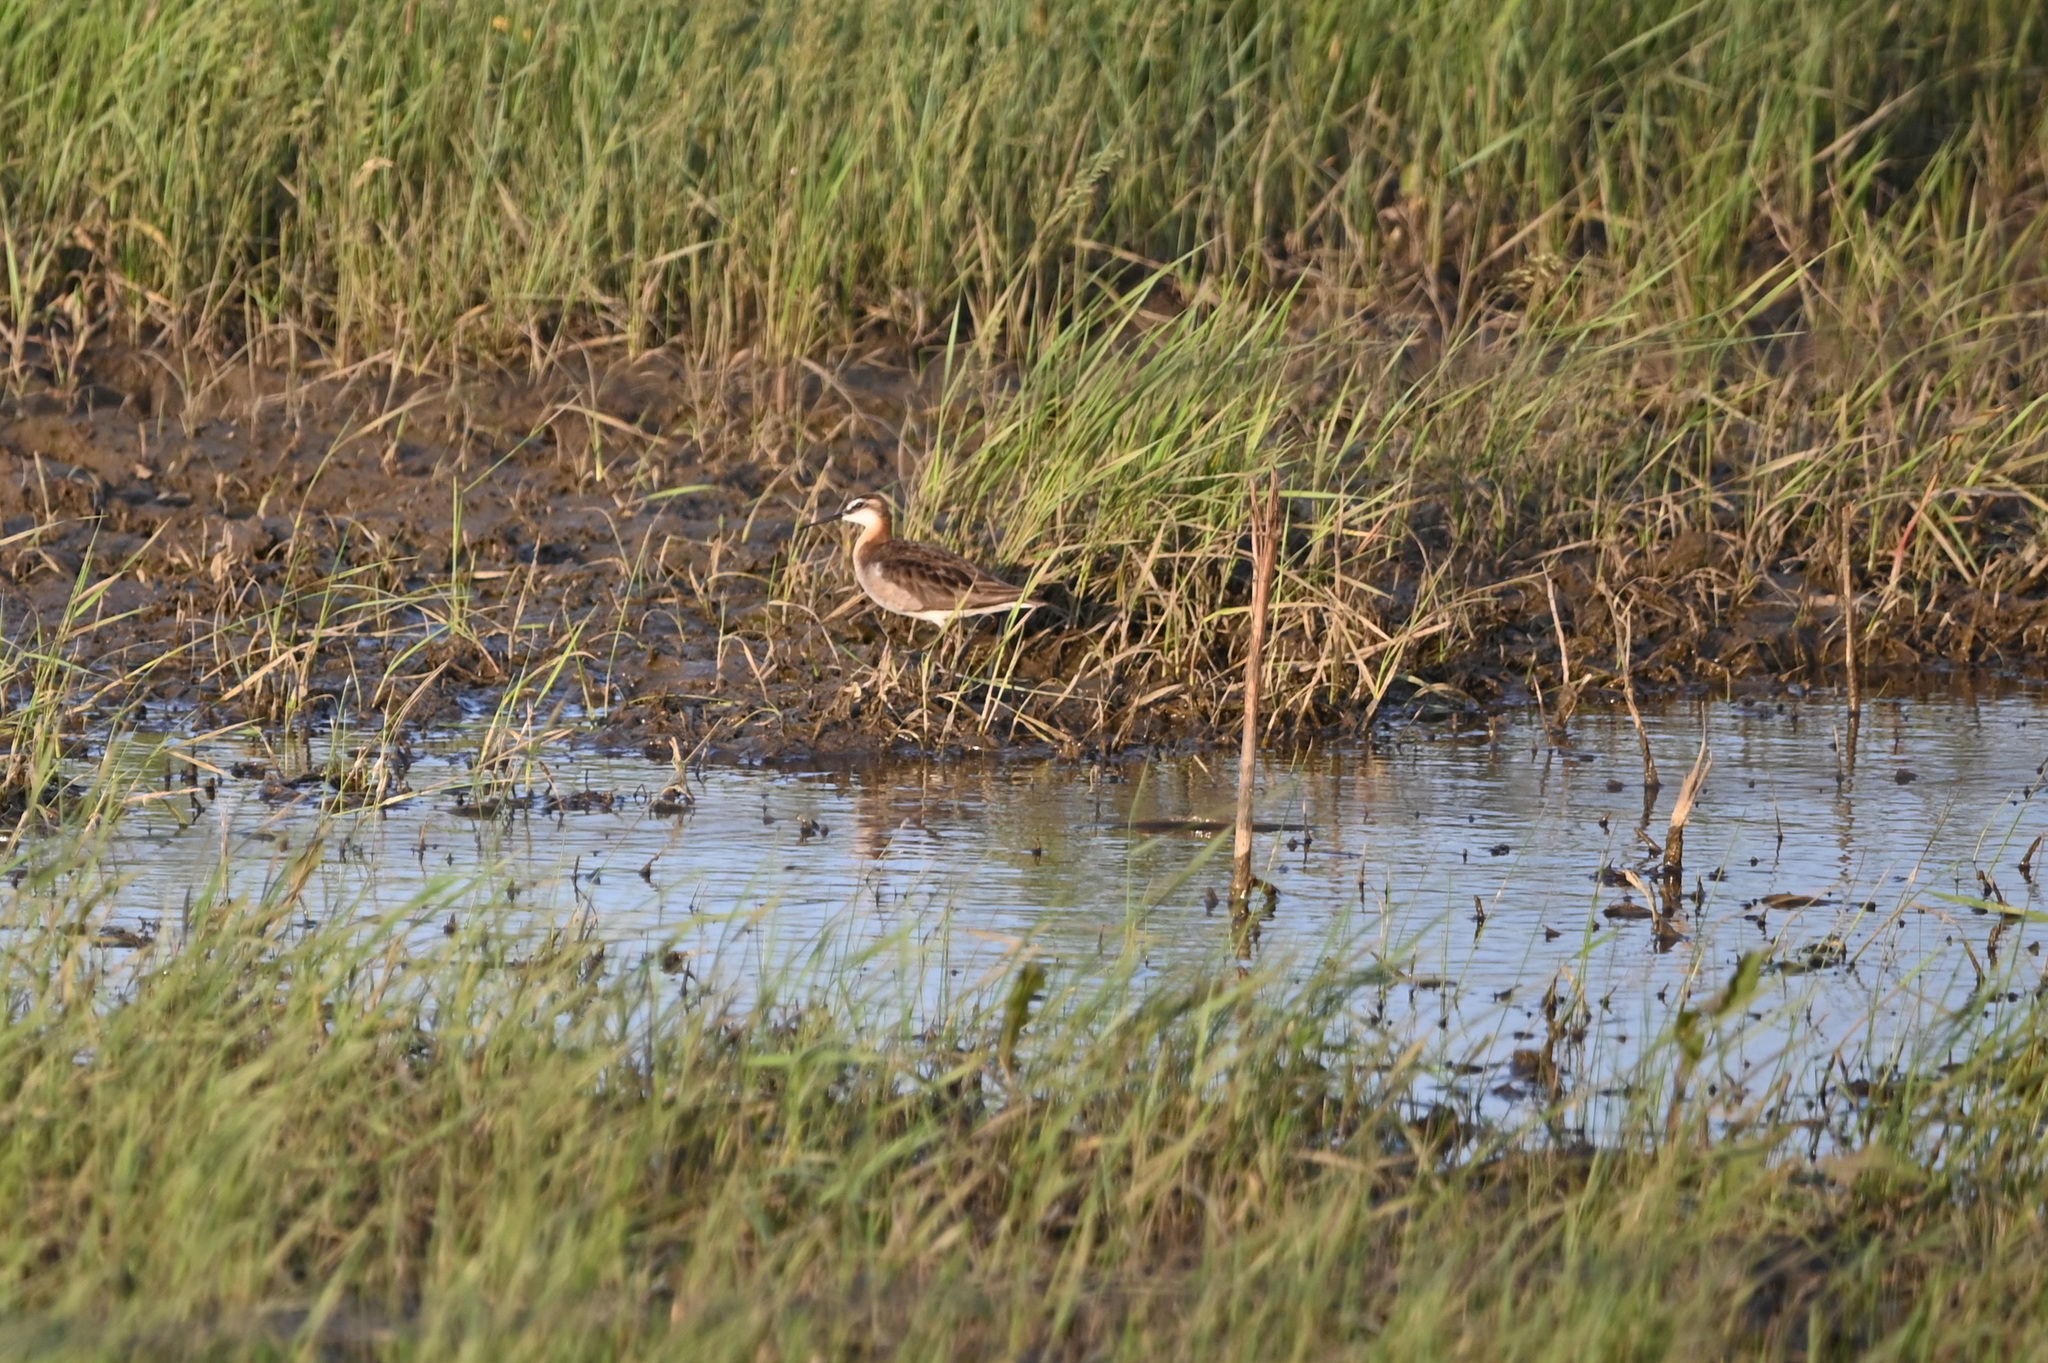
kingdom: Animalia
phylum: Chordata
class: Aves
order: Charadriiformes
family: Scolopacidae
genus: Phalaropus
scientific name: Phalaropus tricolor
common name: Wilson's phalarope
